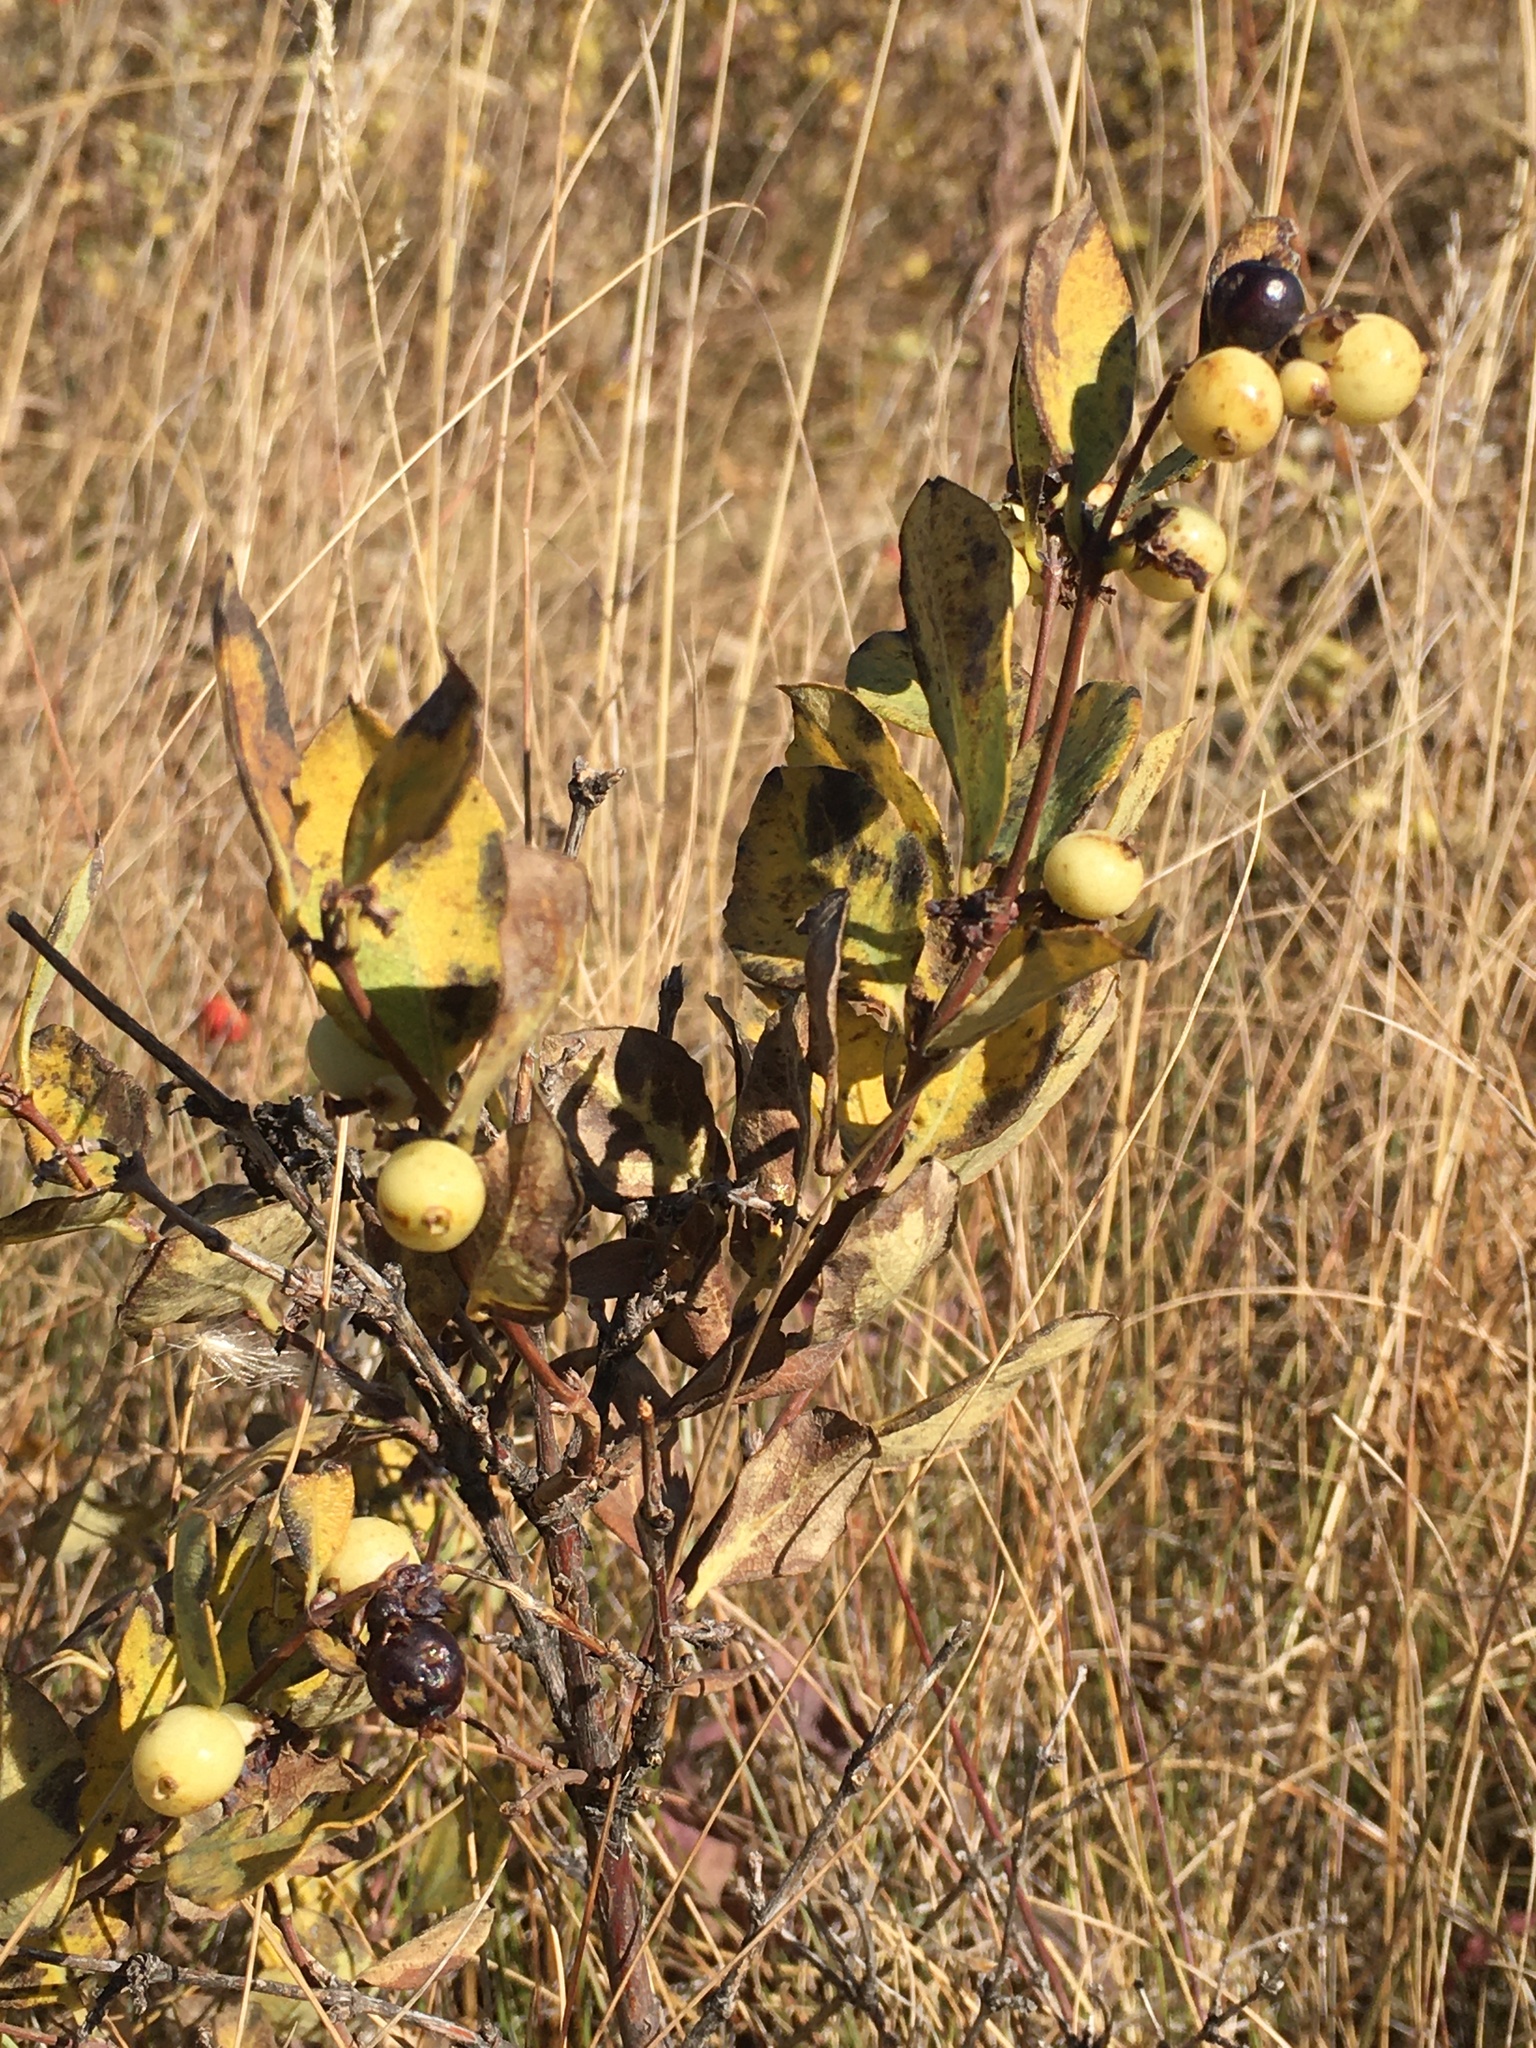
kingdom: Plantae
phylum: Tracheophyta
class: Magnoliopsida
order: Dipsacales
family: Caprifoliaceae
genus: Symphoricarpos
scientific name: Symphoricarpos occidentalis
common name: Wolfberry
